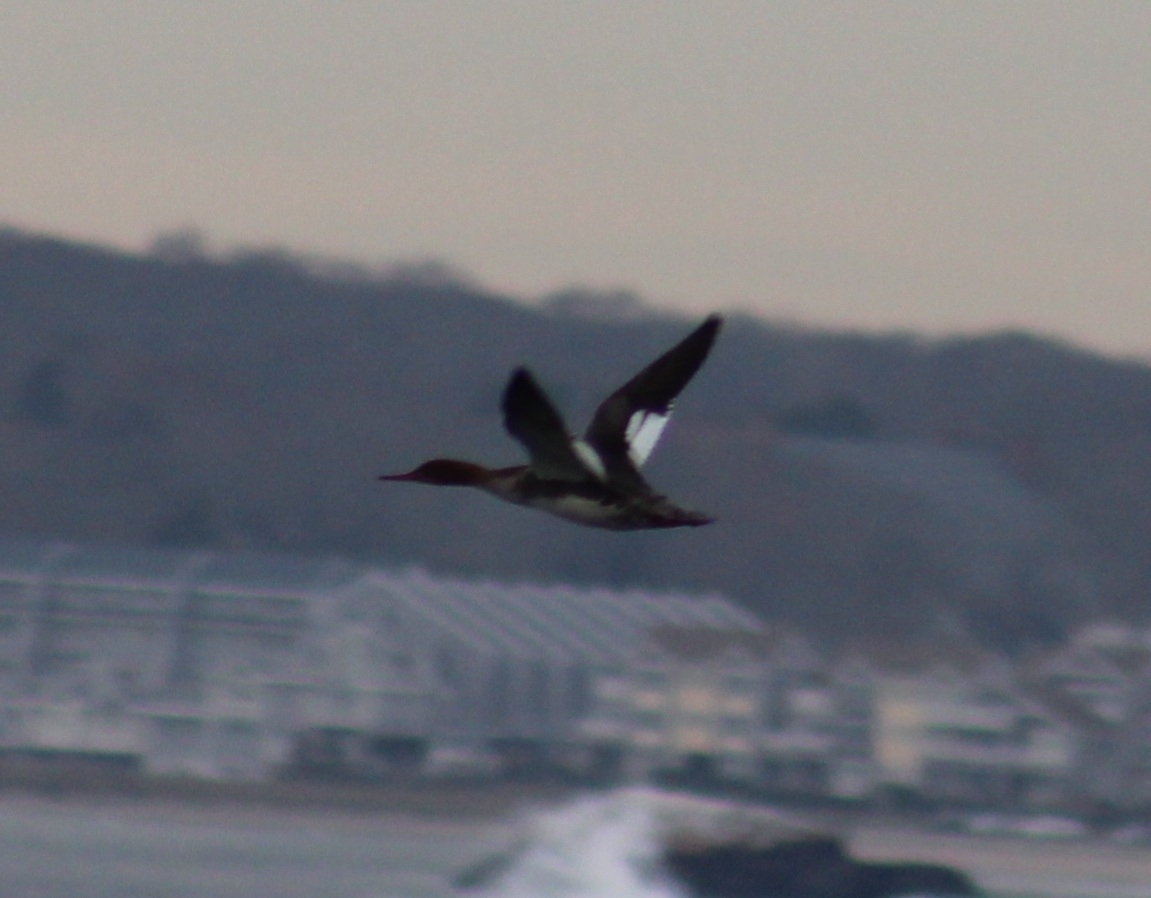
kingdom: Animalia
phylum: Chordata
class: Aves
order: Anseriformes
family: Anatidae
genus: Mergus
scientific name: Mergus serrator
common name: Red-breasted merganser
